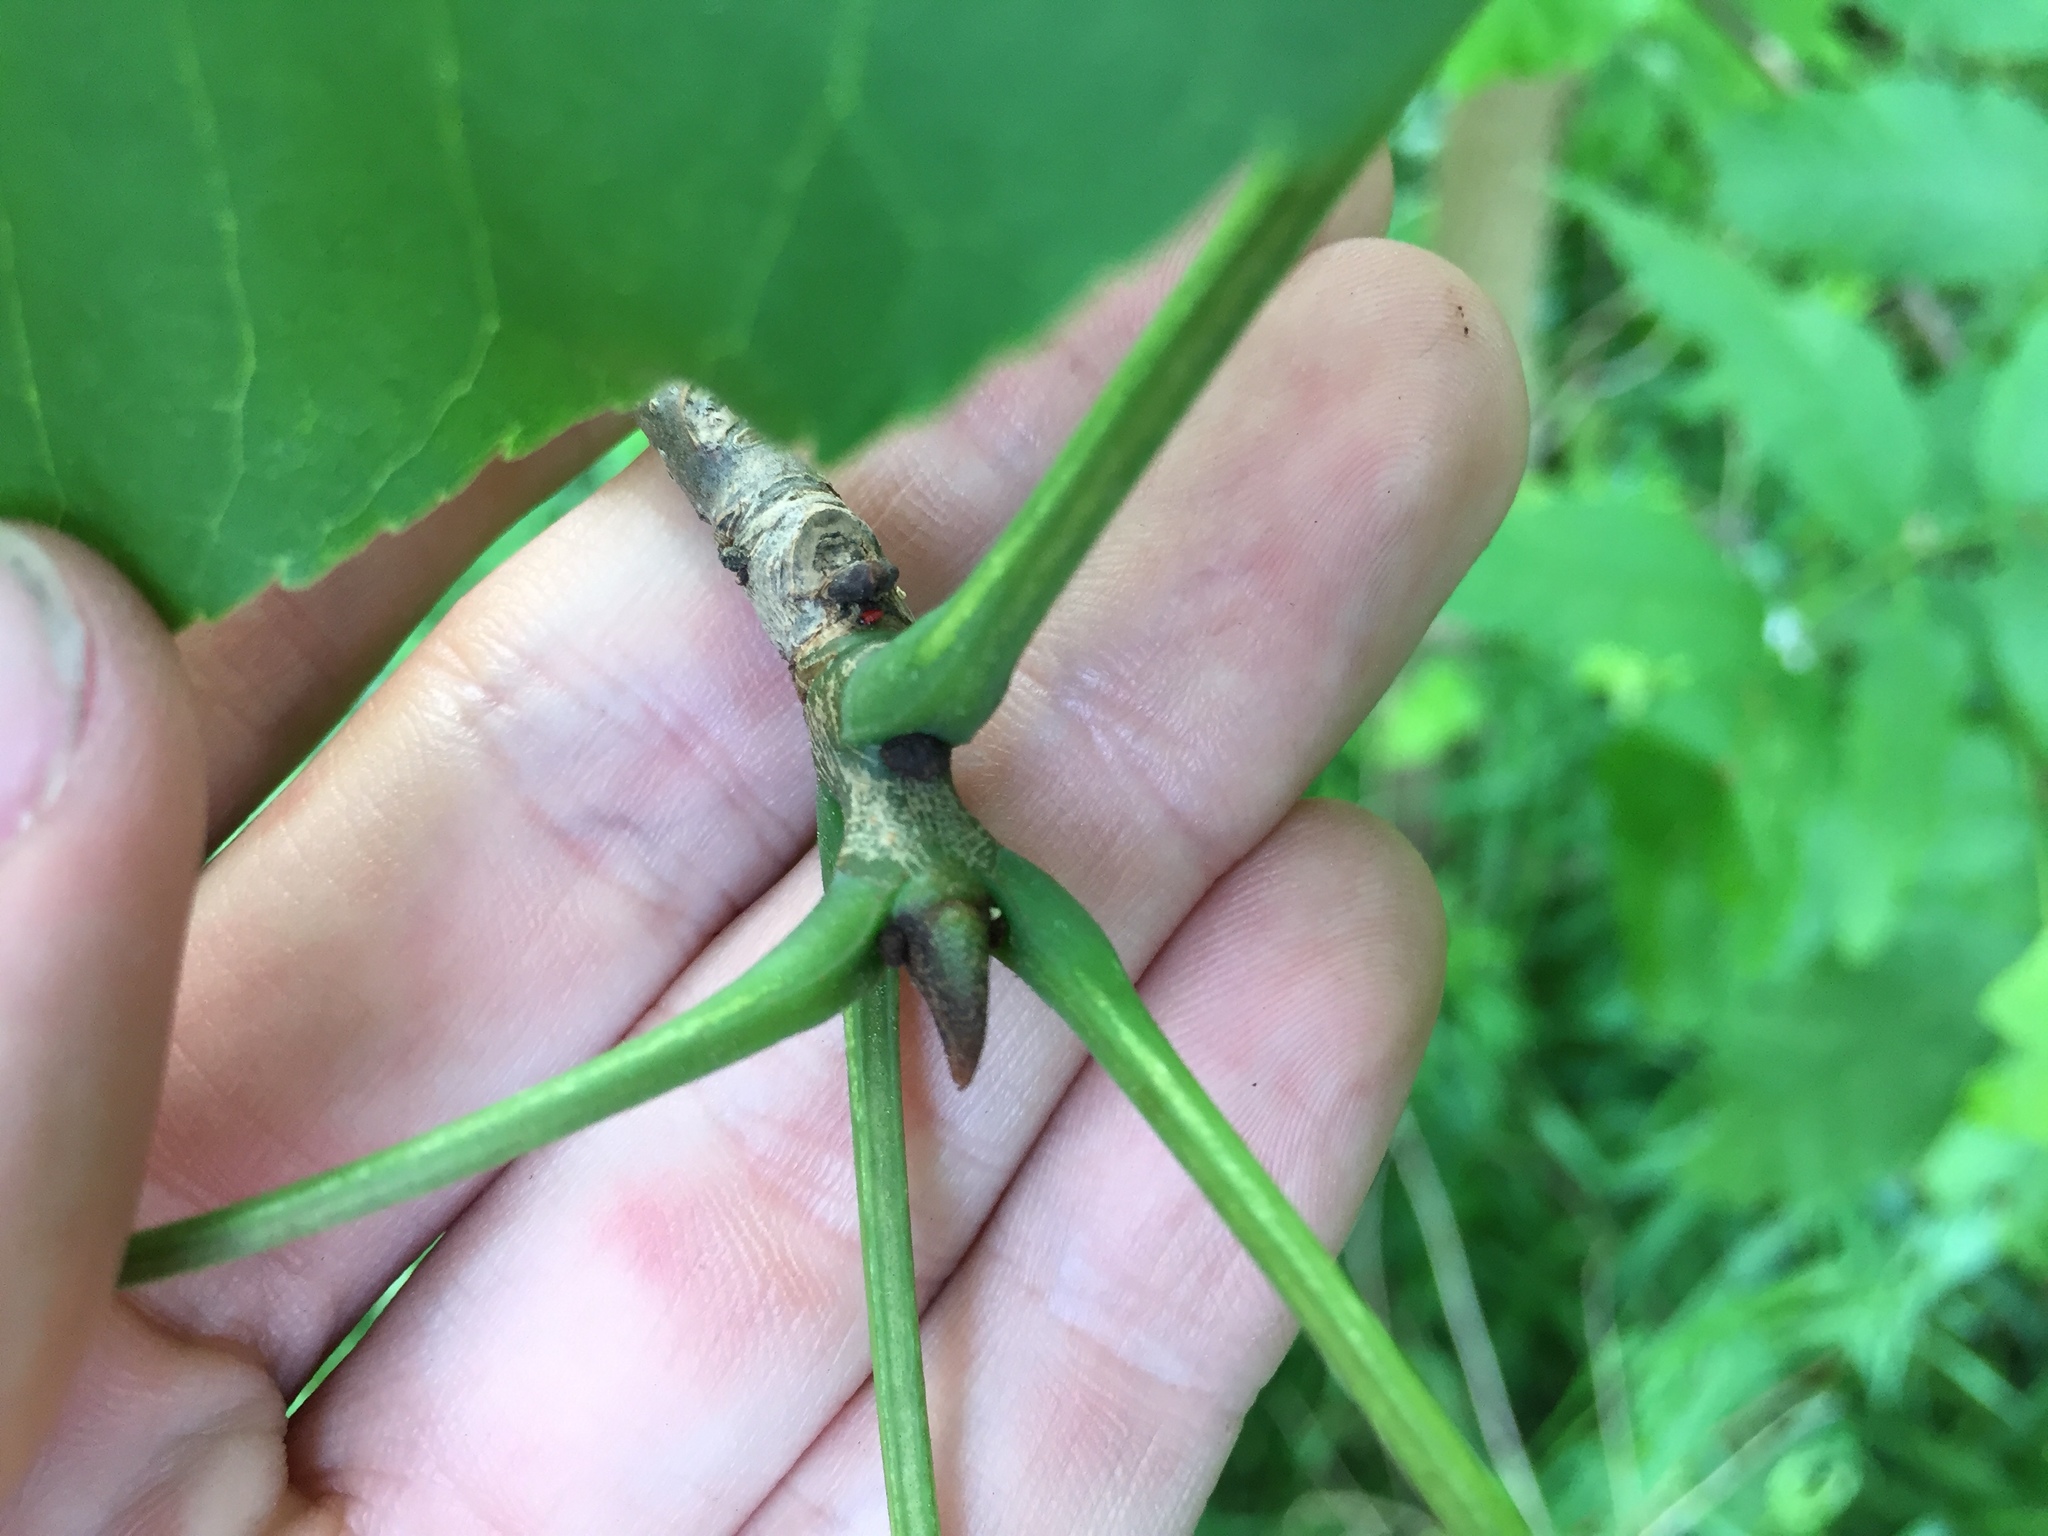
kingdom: Plantae
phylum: Tracheophyta
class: Magnoliopsida
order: Lamiales
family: Oleaceae
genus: Fraxinus
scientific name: Fraxinus excelsior
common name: European ash
